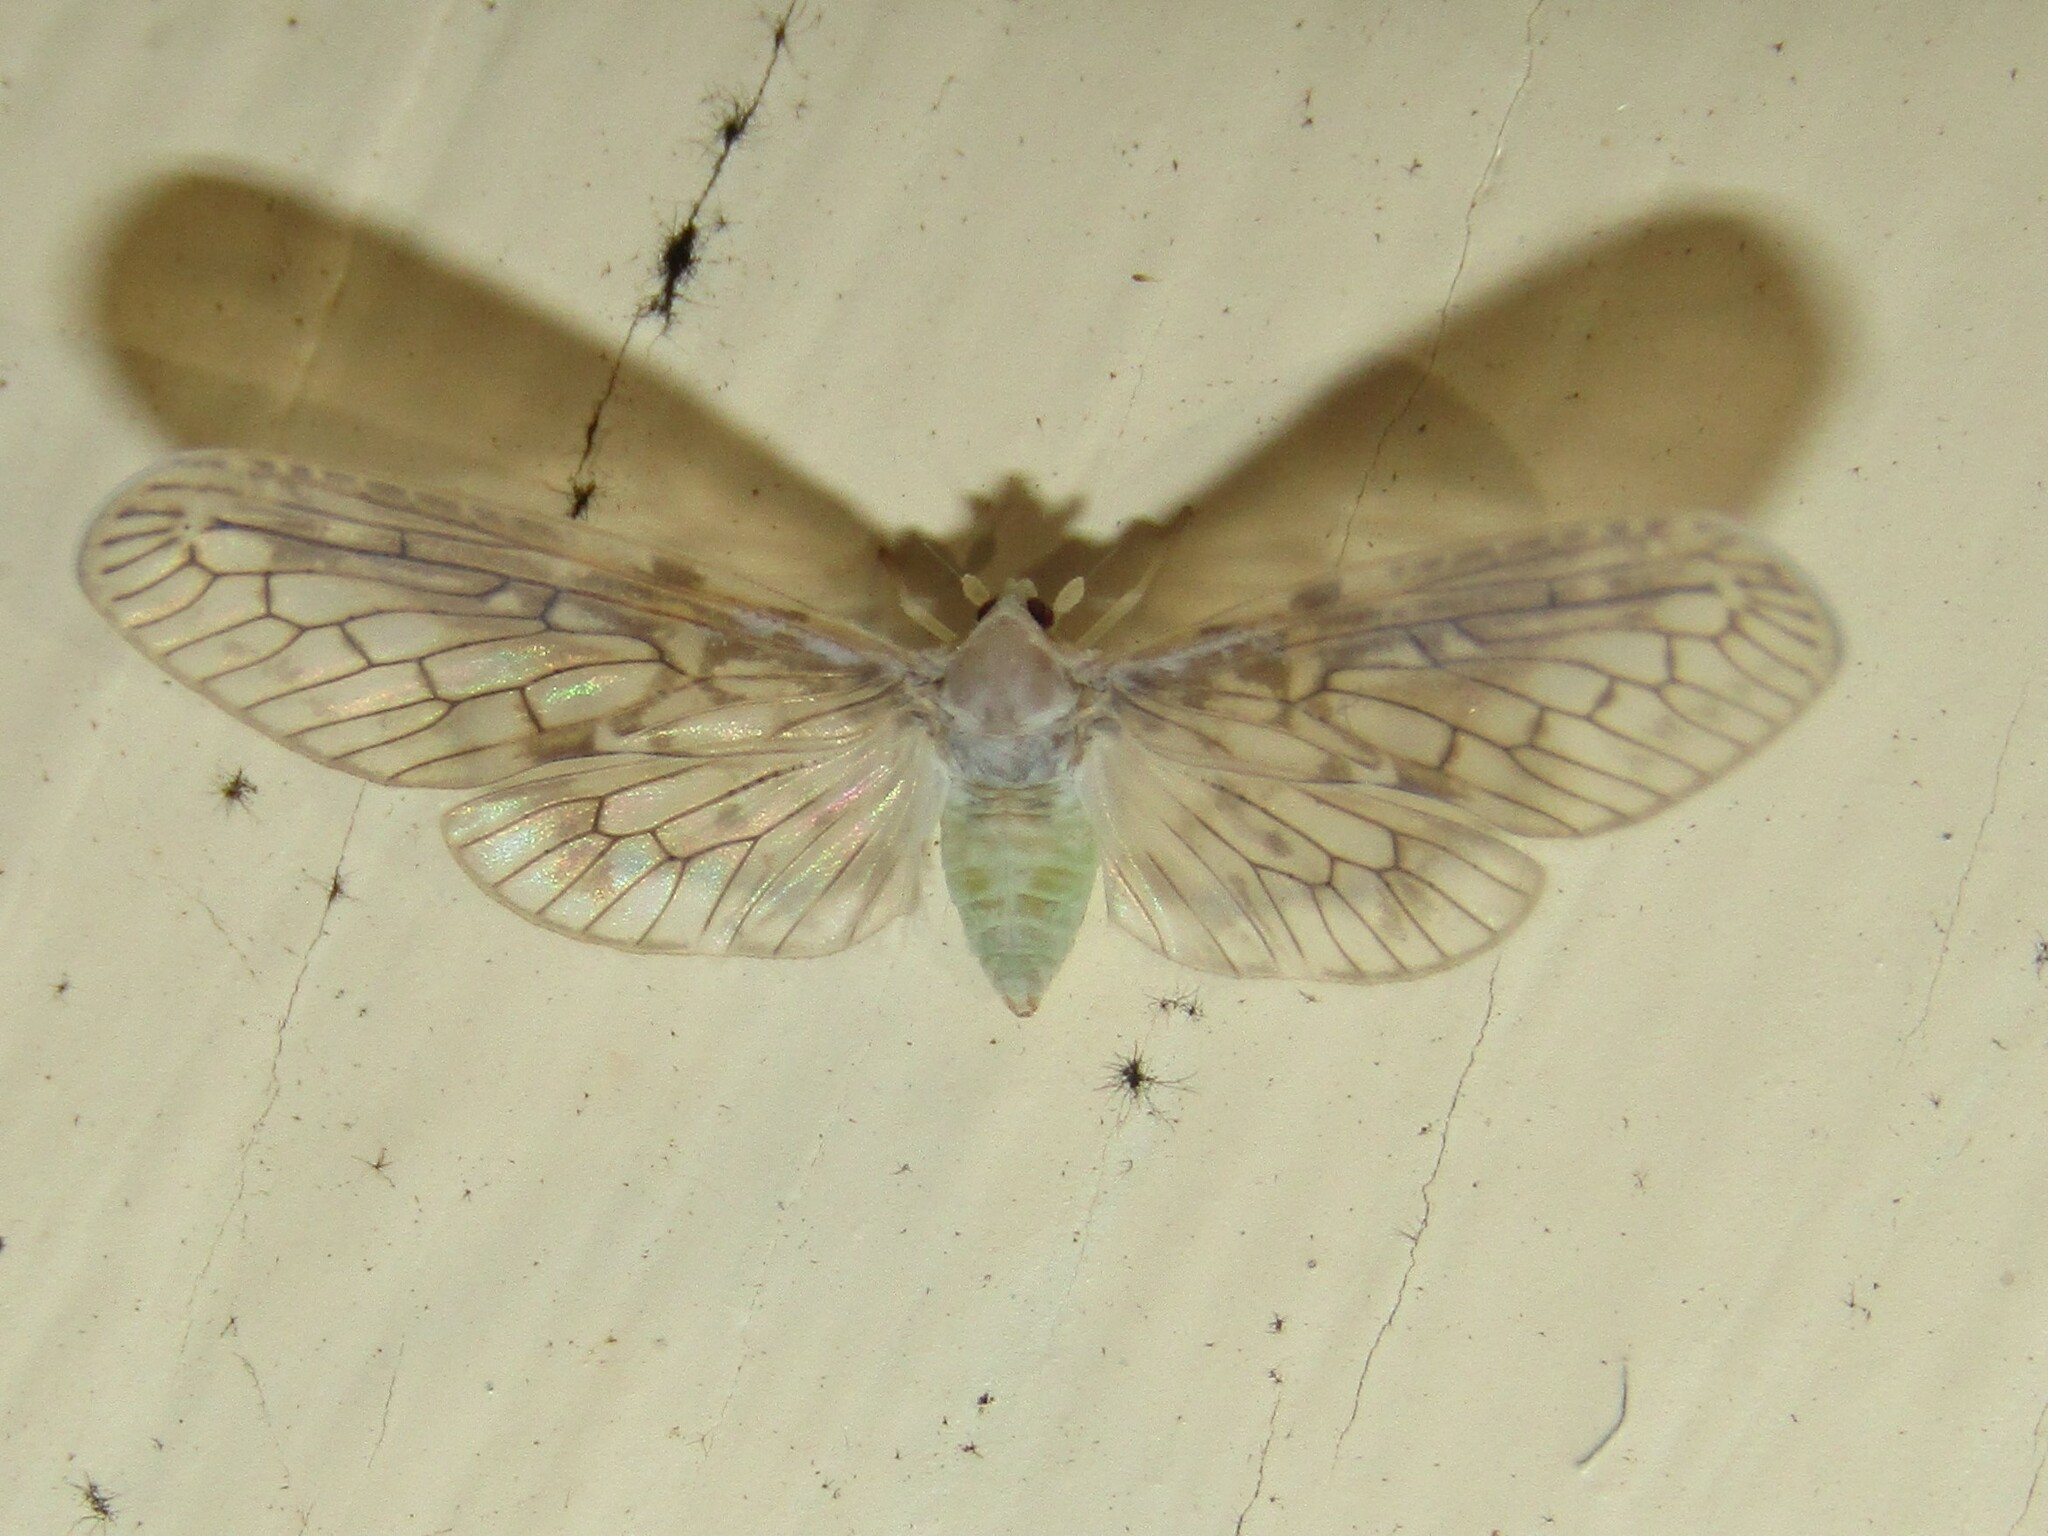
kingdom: Animalia
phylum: Arthropoda
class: Insecta
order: Hemiptera
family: Derbidae
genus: Paramysidia
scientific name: Paramysidia mississippiensis
